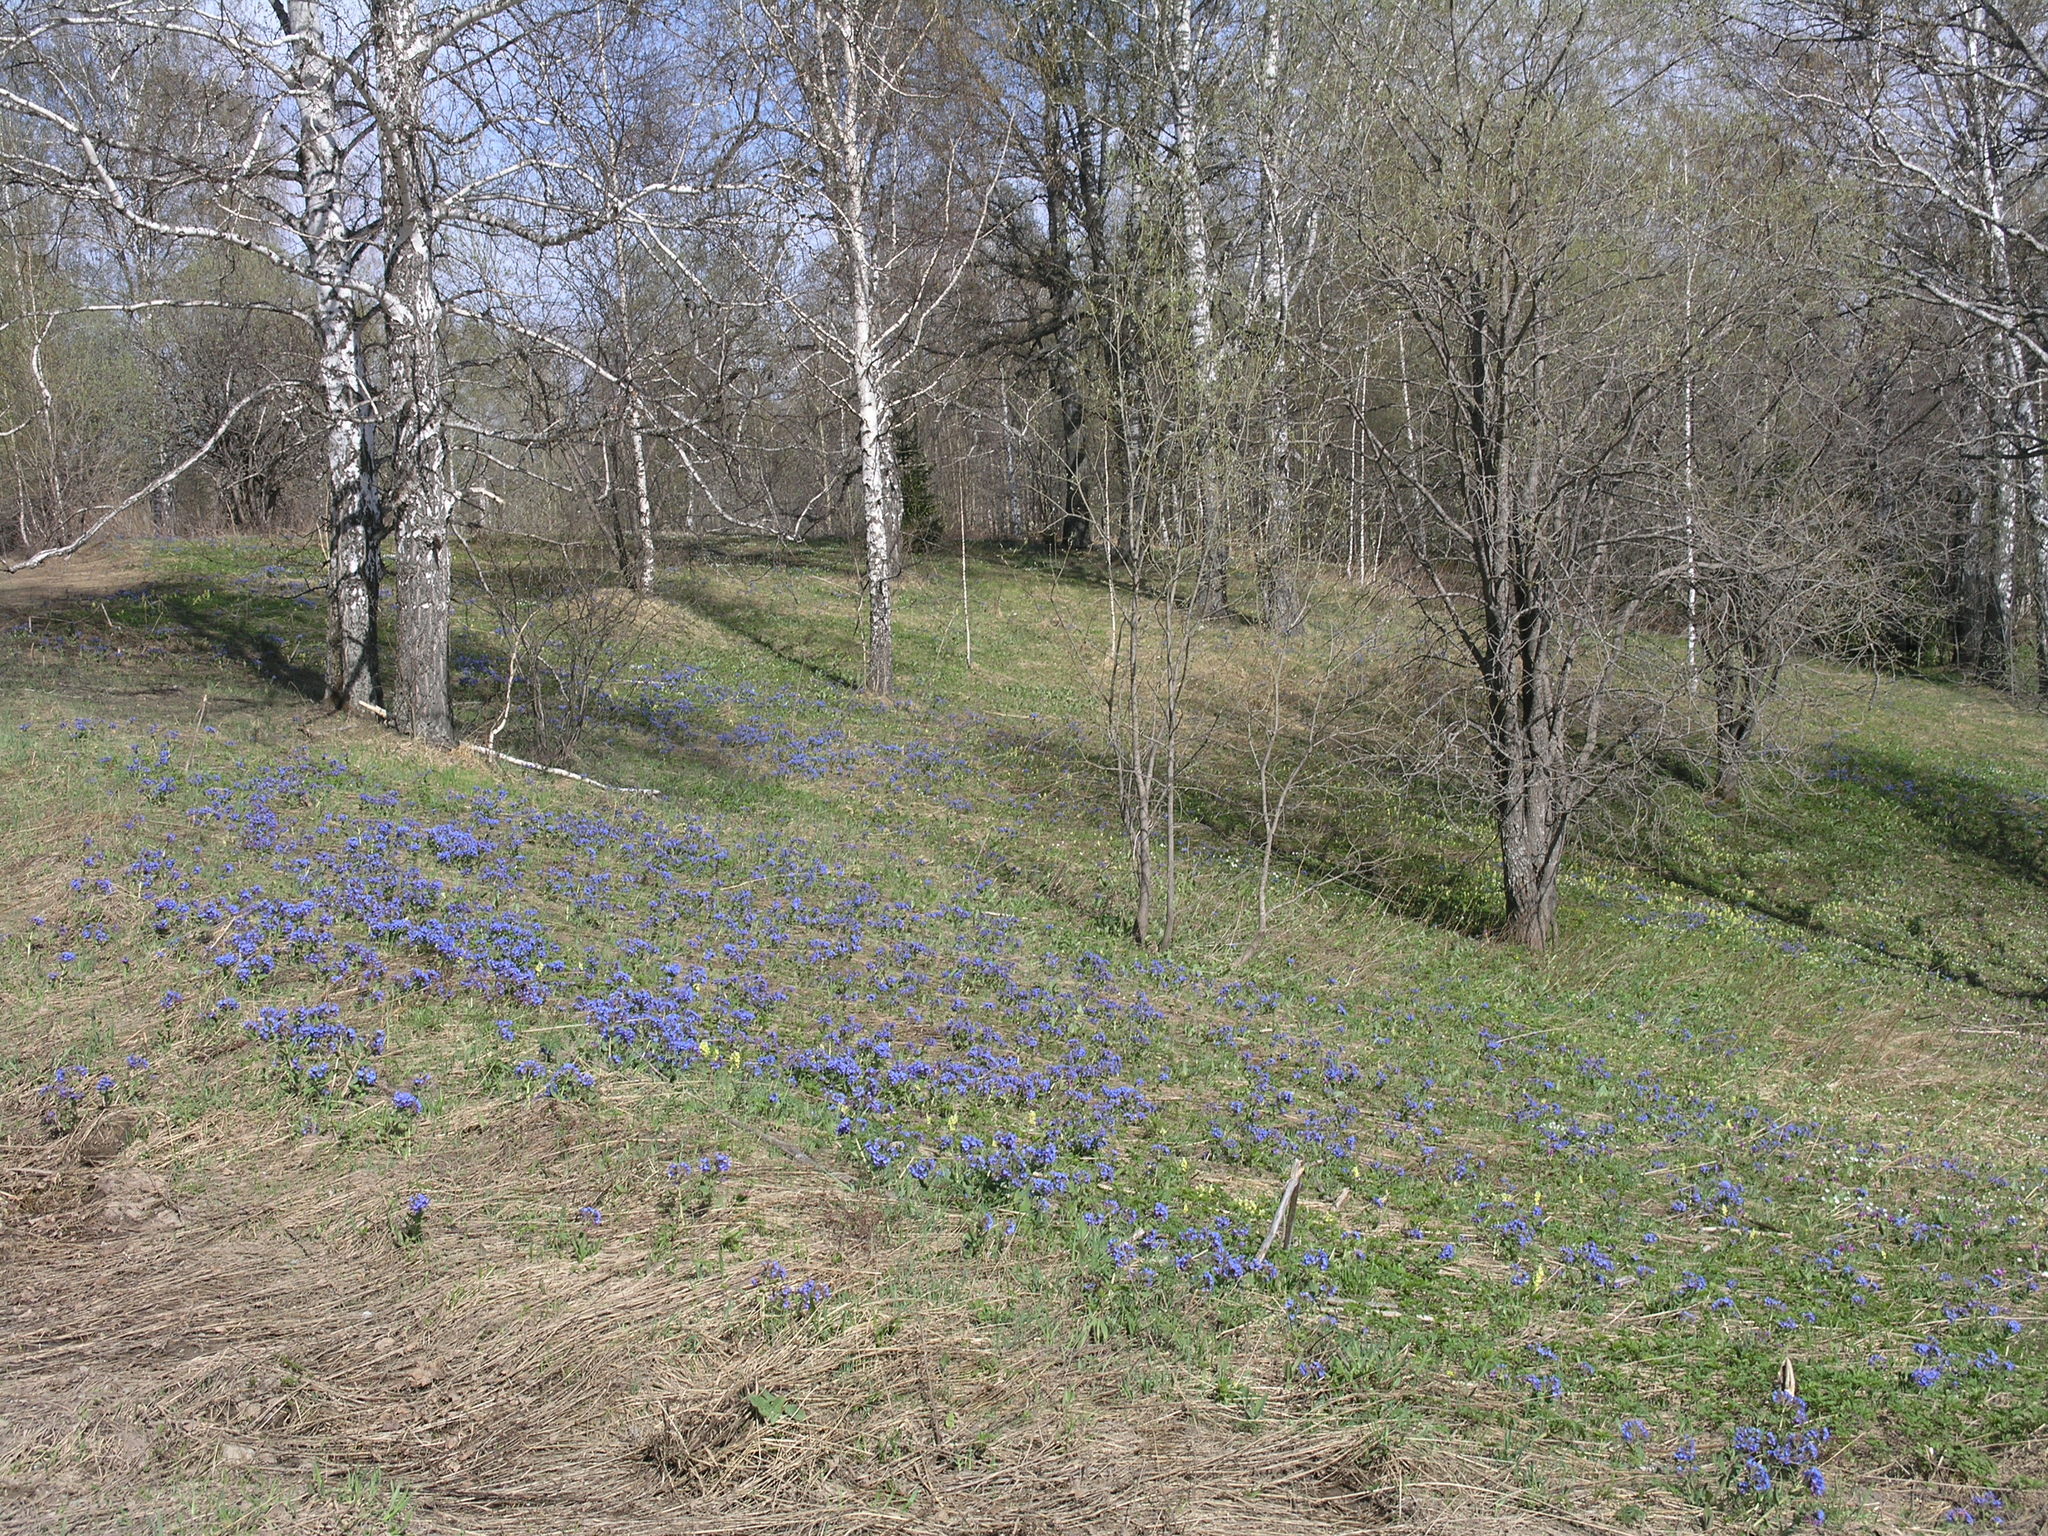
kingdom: Plantae
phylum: Tracheophyta
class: Magnoliopsida
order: Boraginales
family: Boraginaceae
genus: Pulmonaria
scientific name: Pulmonaria mollis
